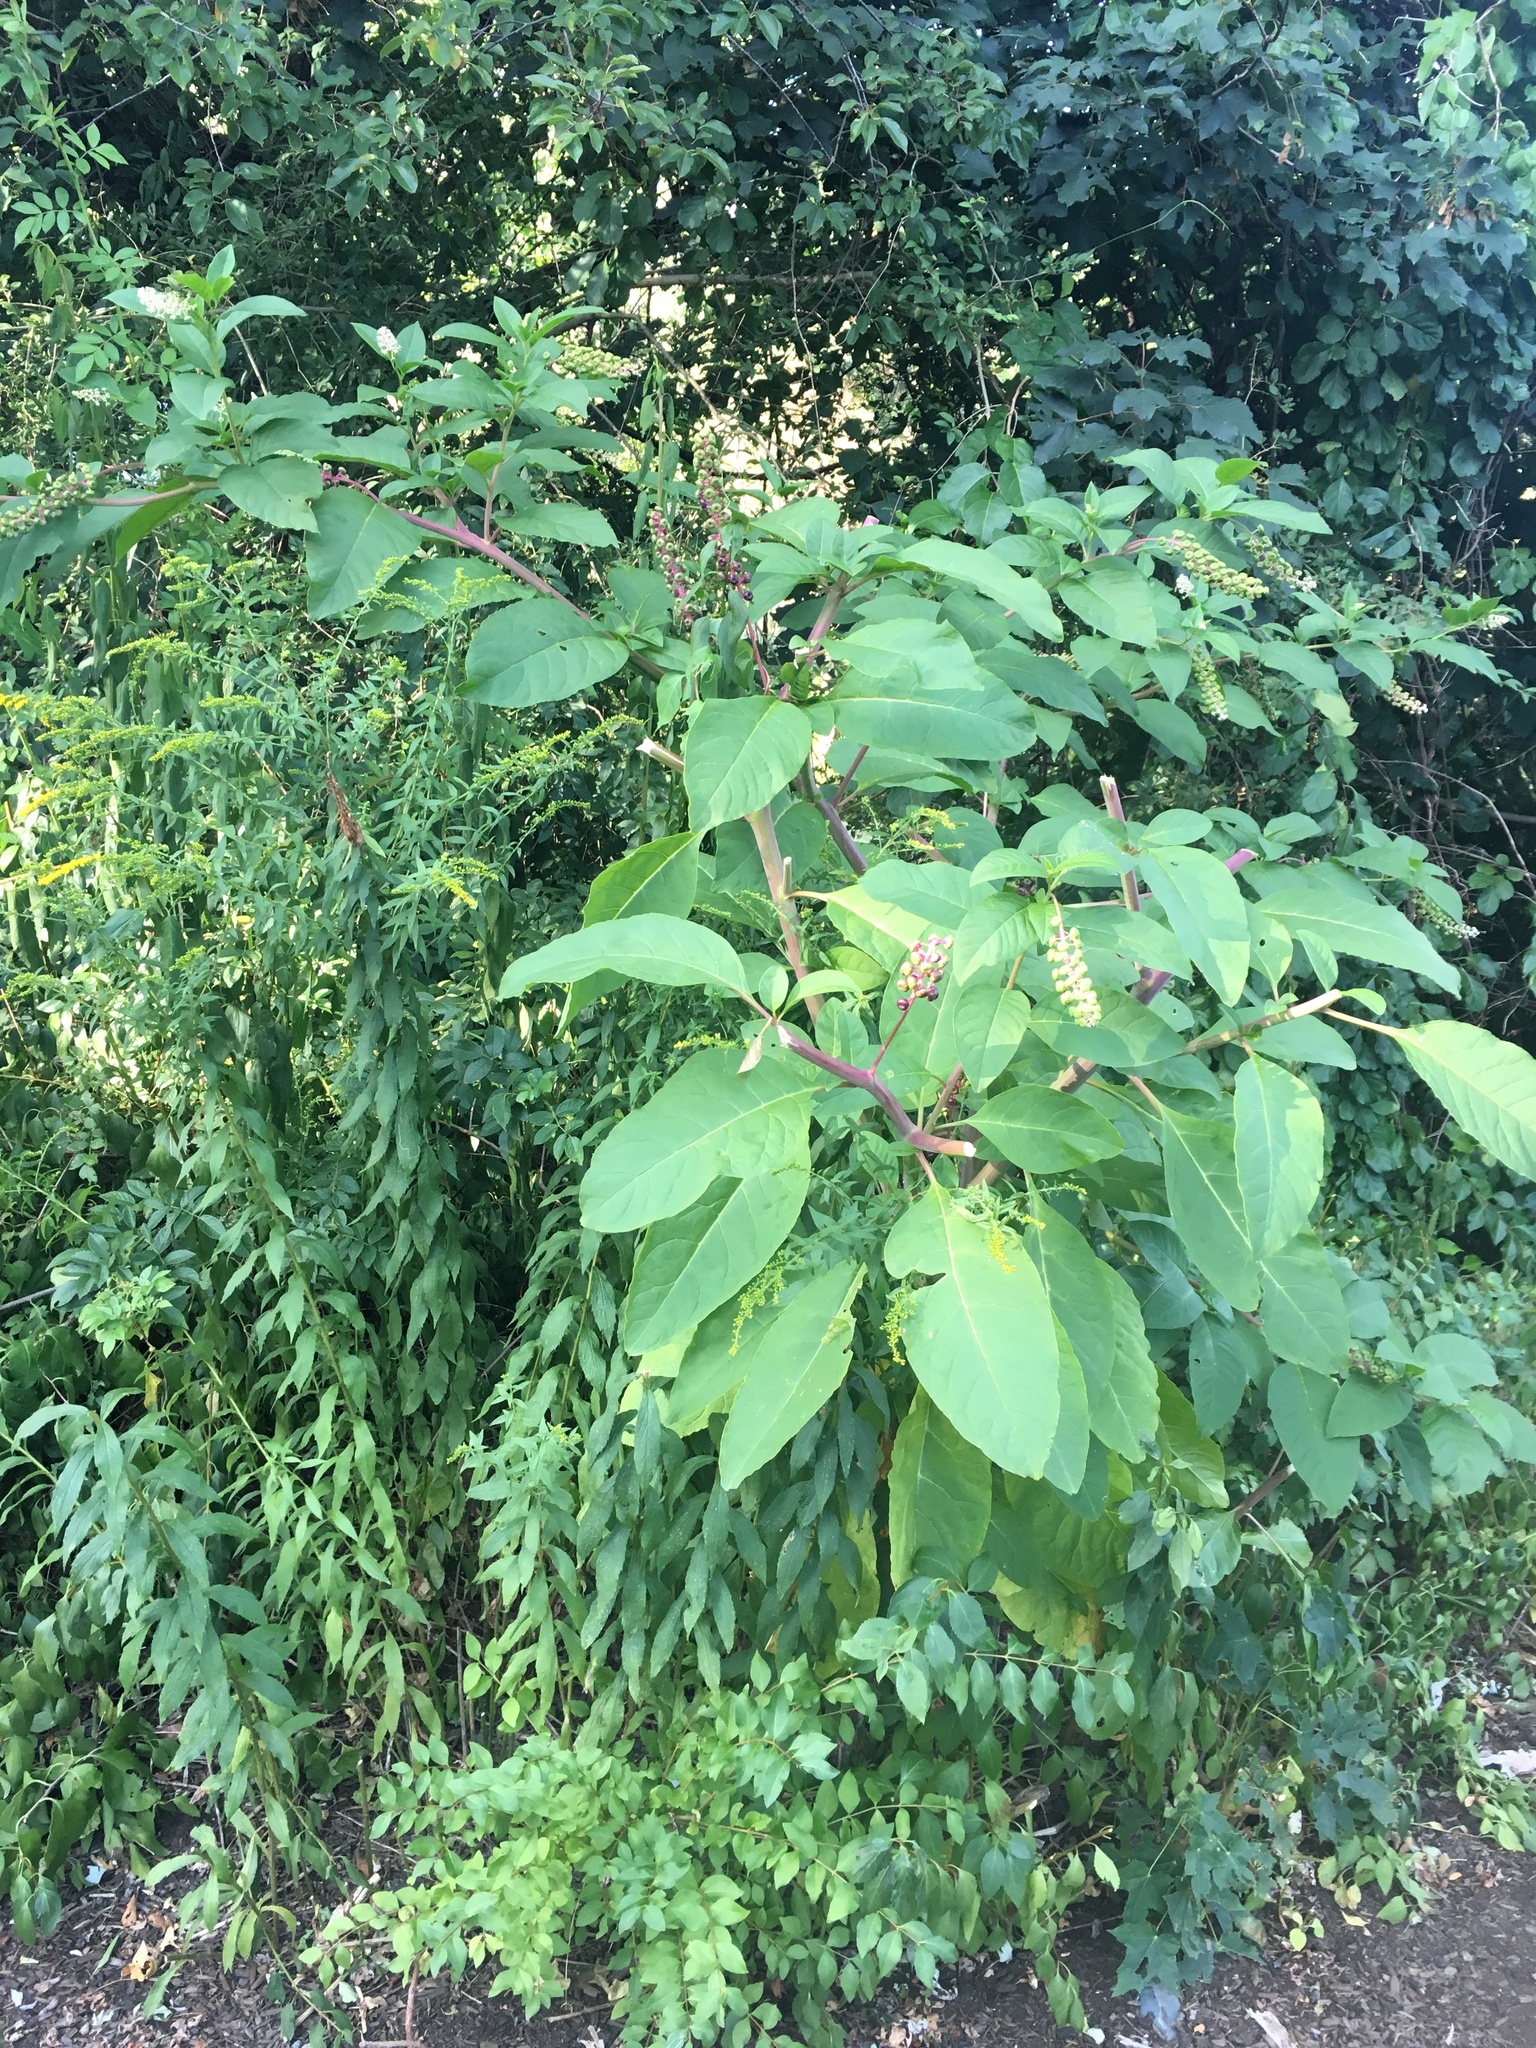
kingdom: Plantae
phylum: Tracheophyta
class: Magnoliopsida
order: Caryophyllales
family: Phytolaccaceae
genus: Phytolacca
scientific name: Phytolacca americana
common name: American pokeweed
